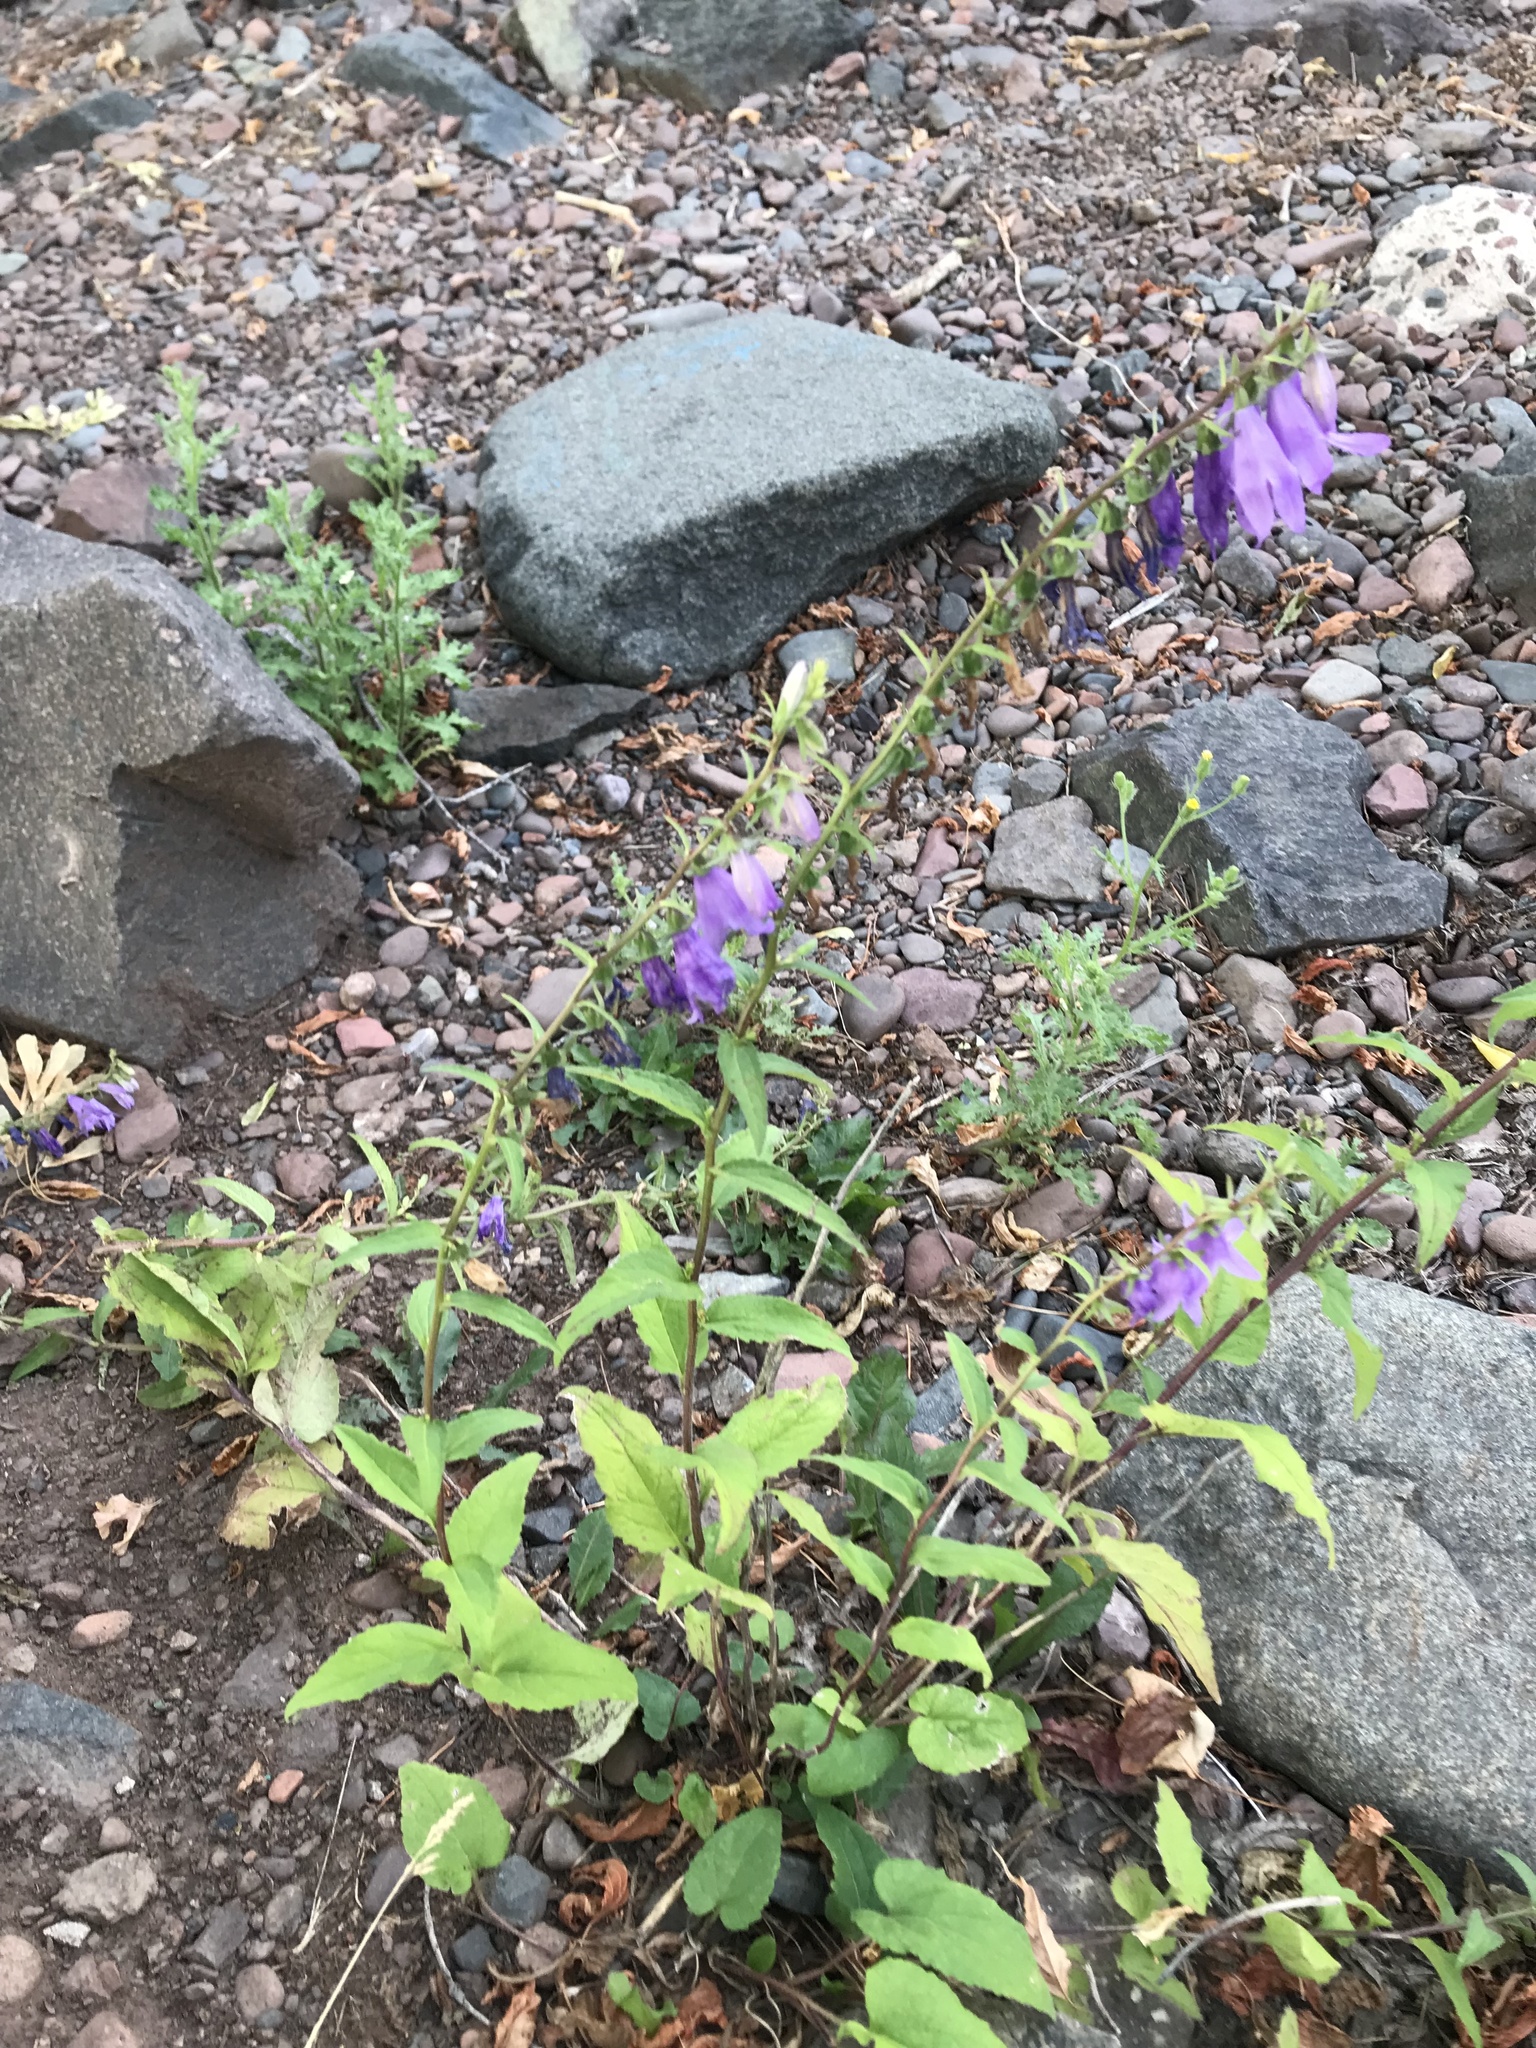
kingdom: Plantae
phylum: Tracheophyta
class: Magnoliopsida
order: Asterales
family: Campanulaceae
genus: Campanula
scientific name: Campanula rapunculoides
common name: Creeping bellflower
